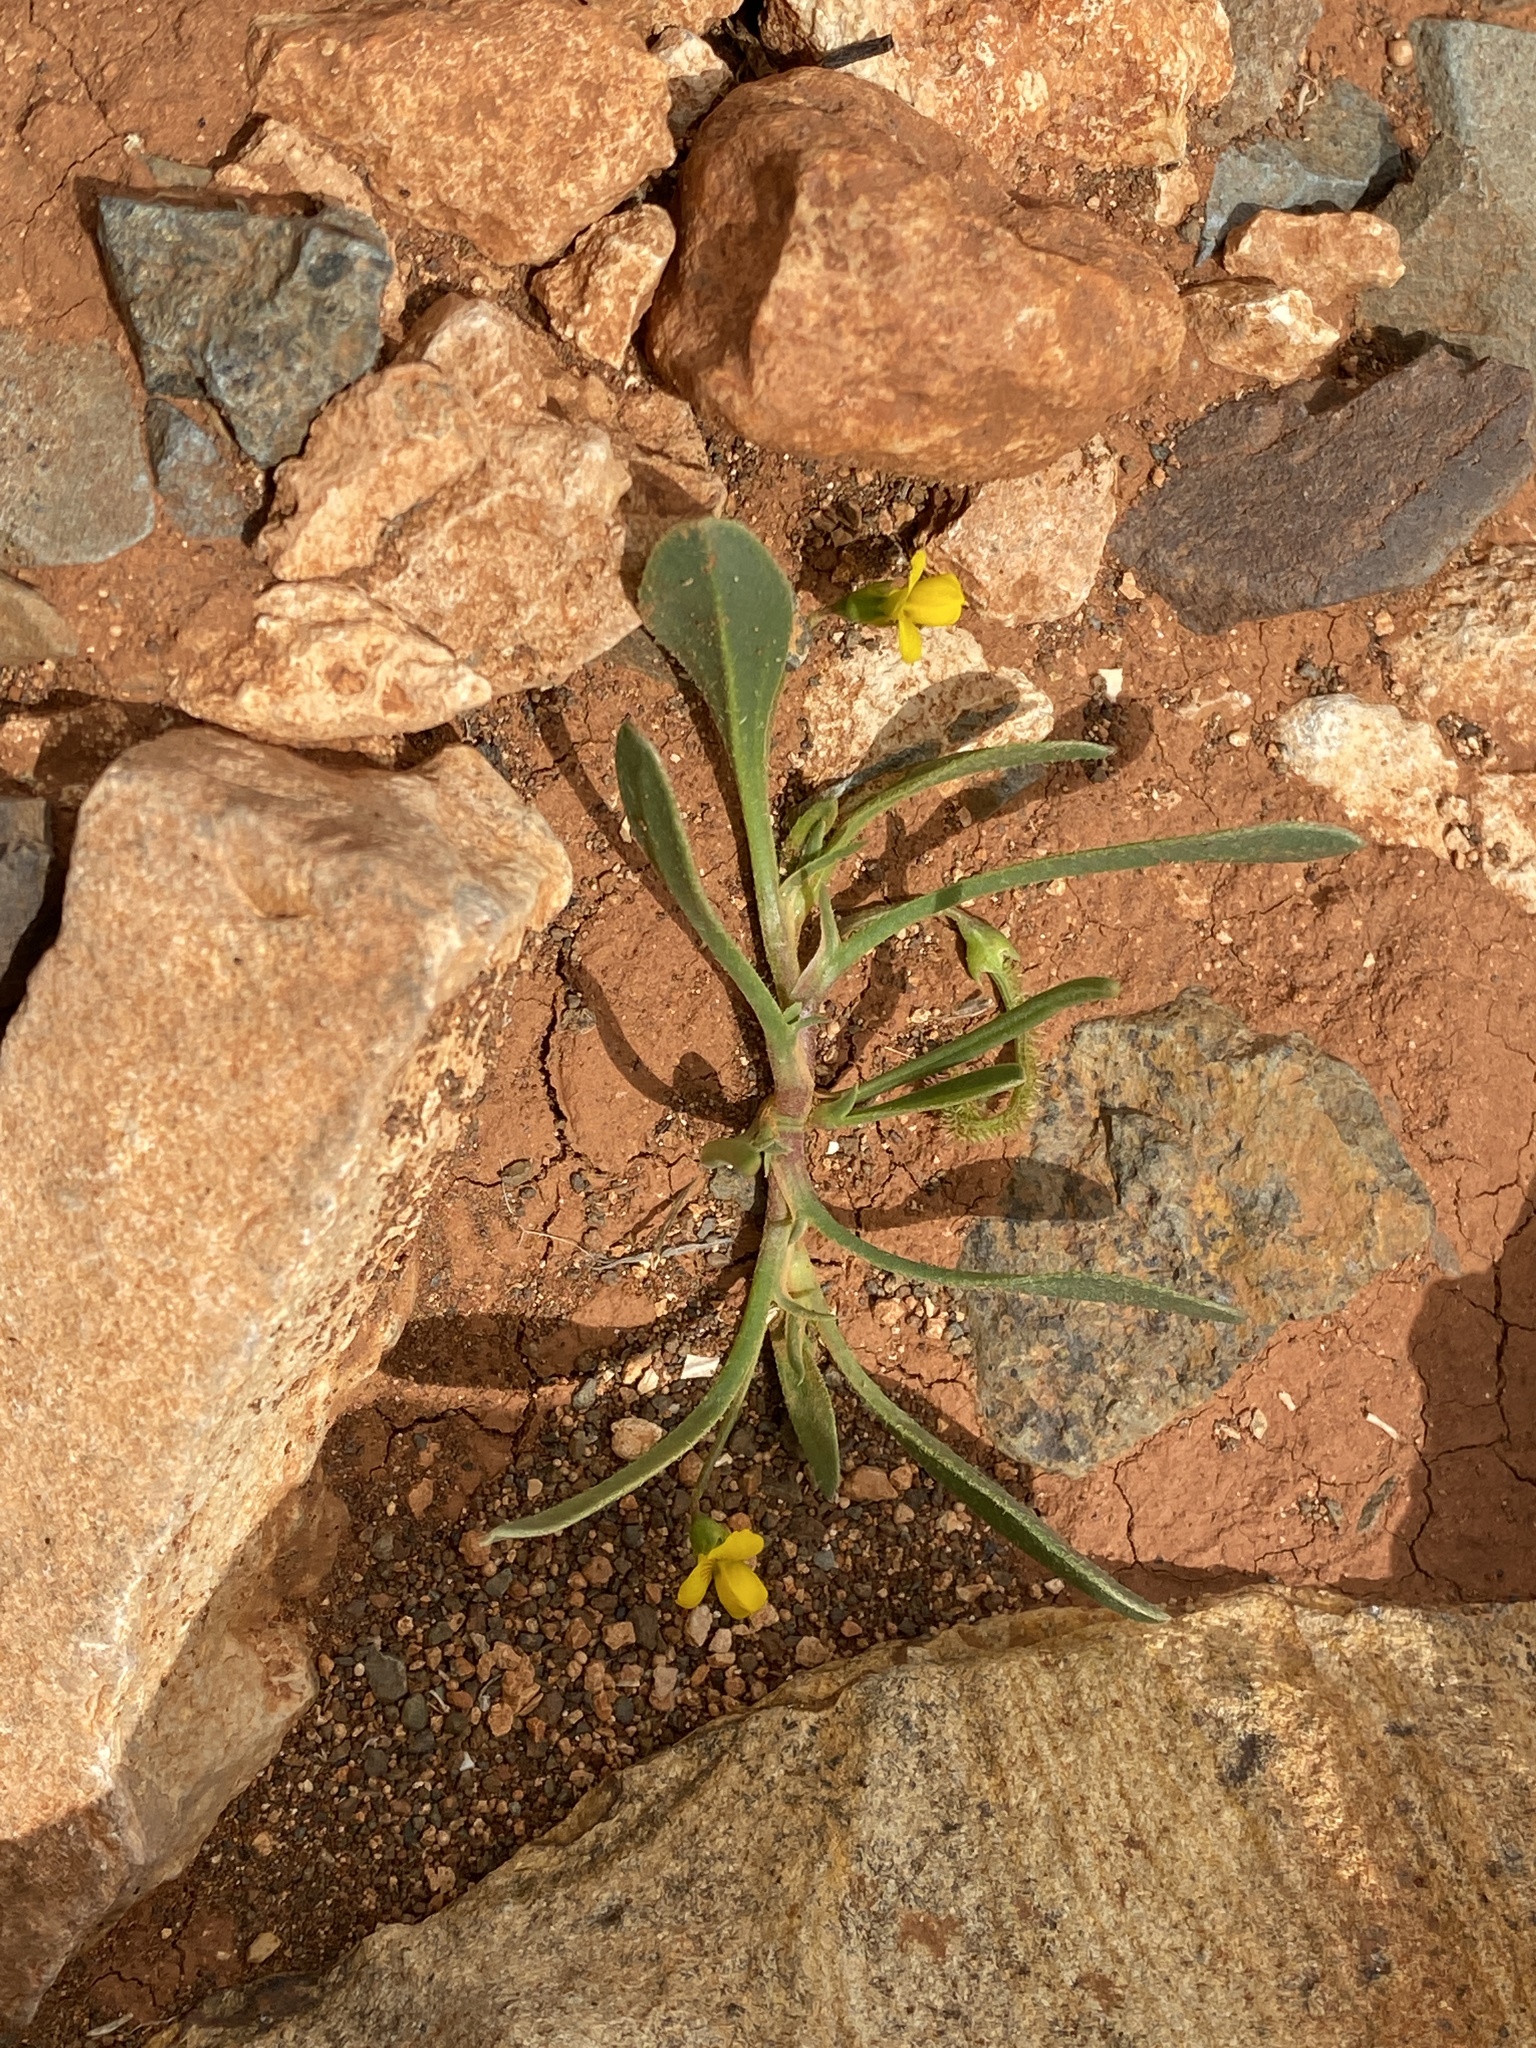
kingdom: Plantae
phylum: Tracheophyta
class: Magnoliopsida
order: Fabales
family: Fabaceae
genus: Scorpiurus
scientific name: Scorpiurus muricatus
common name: Caterpillar-plant
